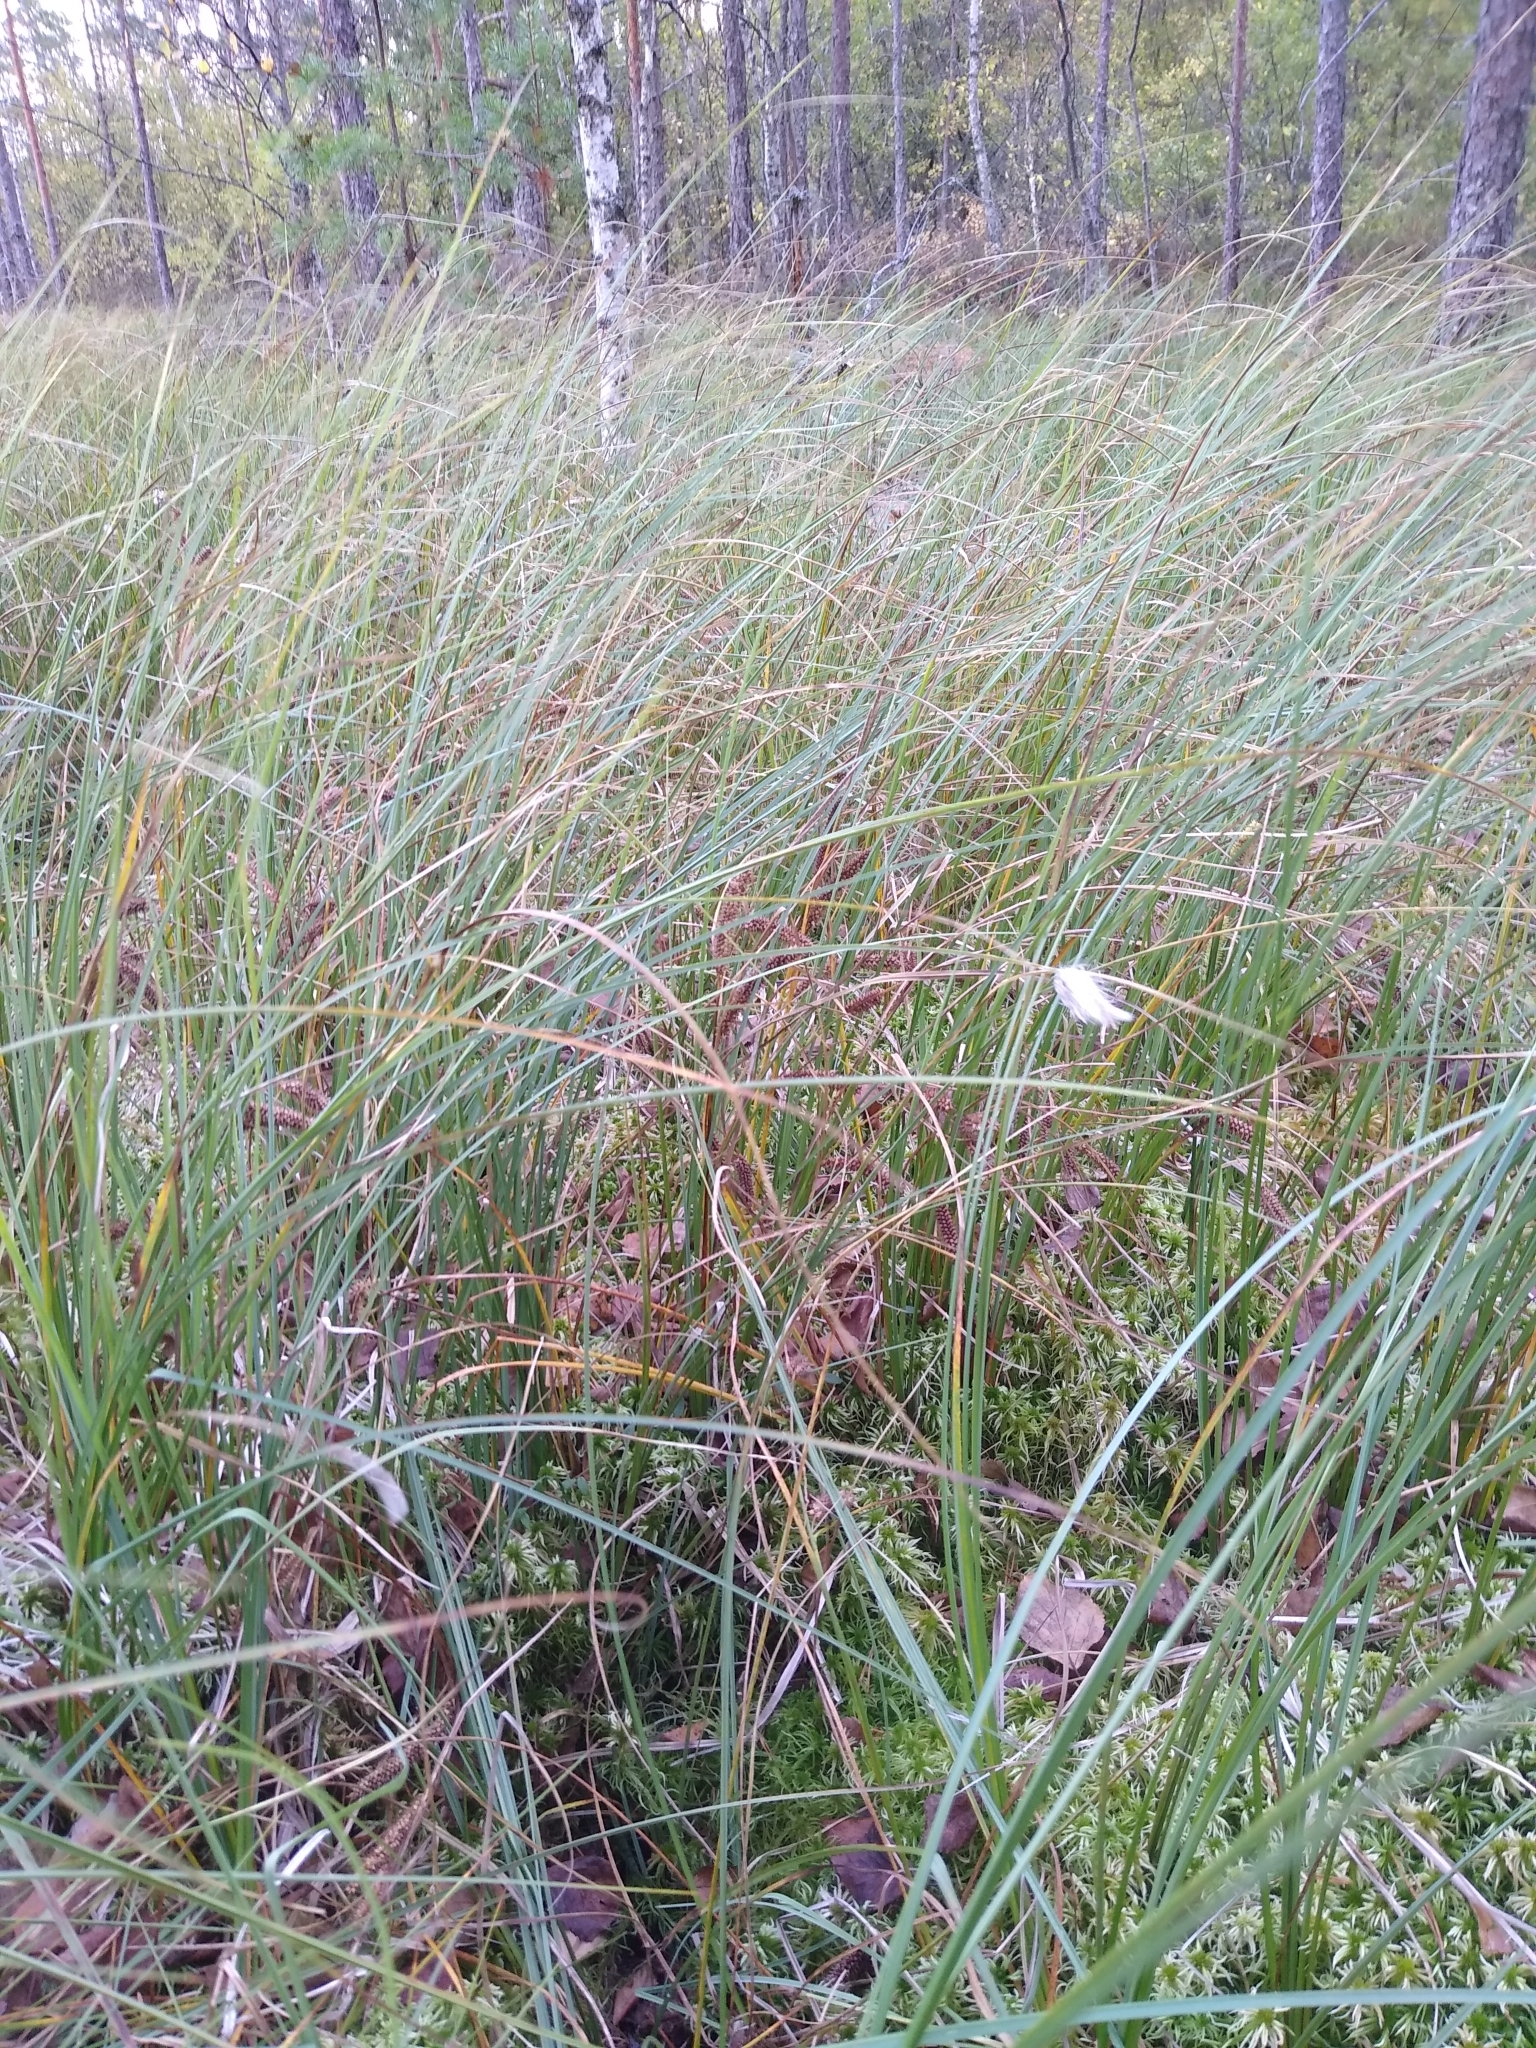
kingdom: Plantae
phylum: Tracheophyta
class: Liliopsida
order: Poales
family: Cyperaceae
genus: Eriophorum
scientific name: Eriophorum vaginatum
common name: Hare's-tail cottongrass
